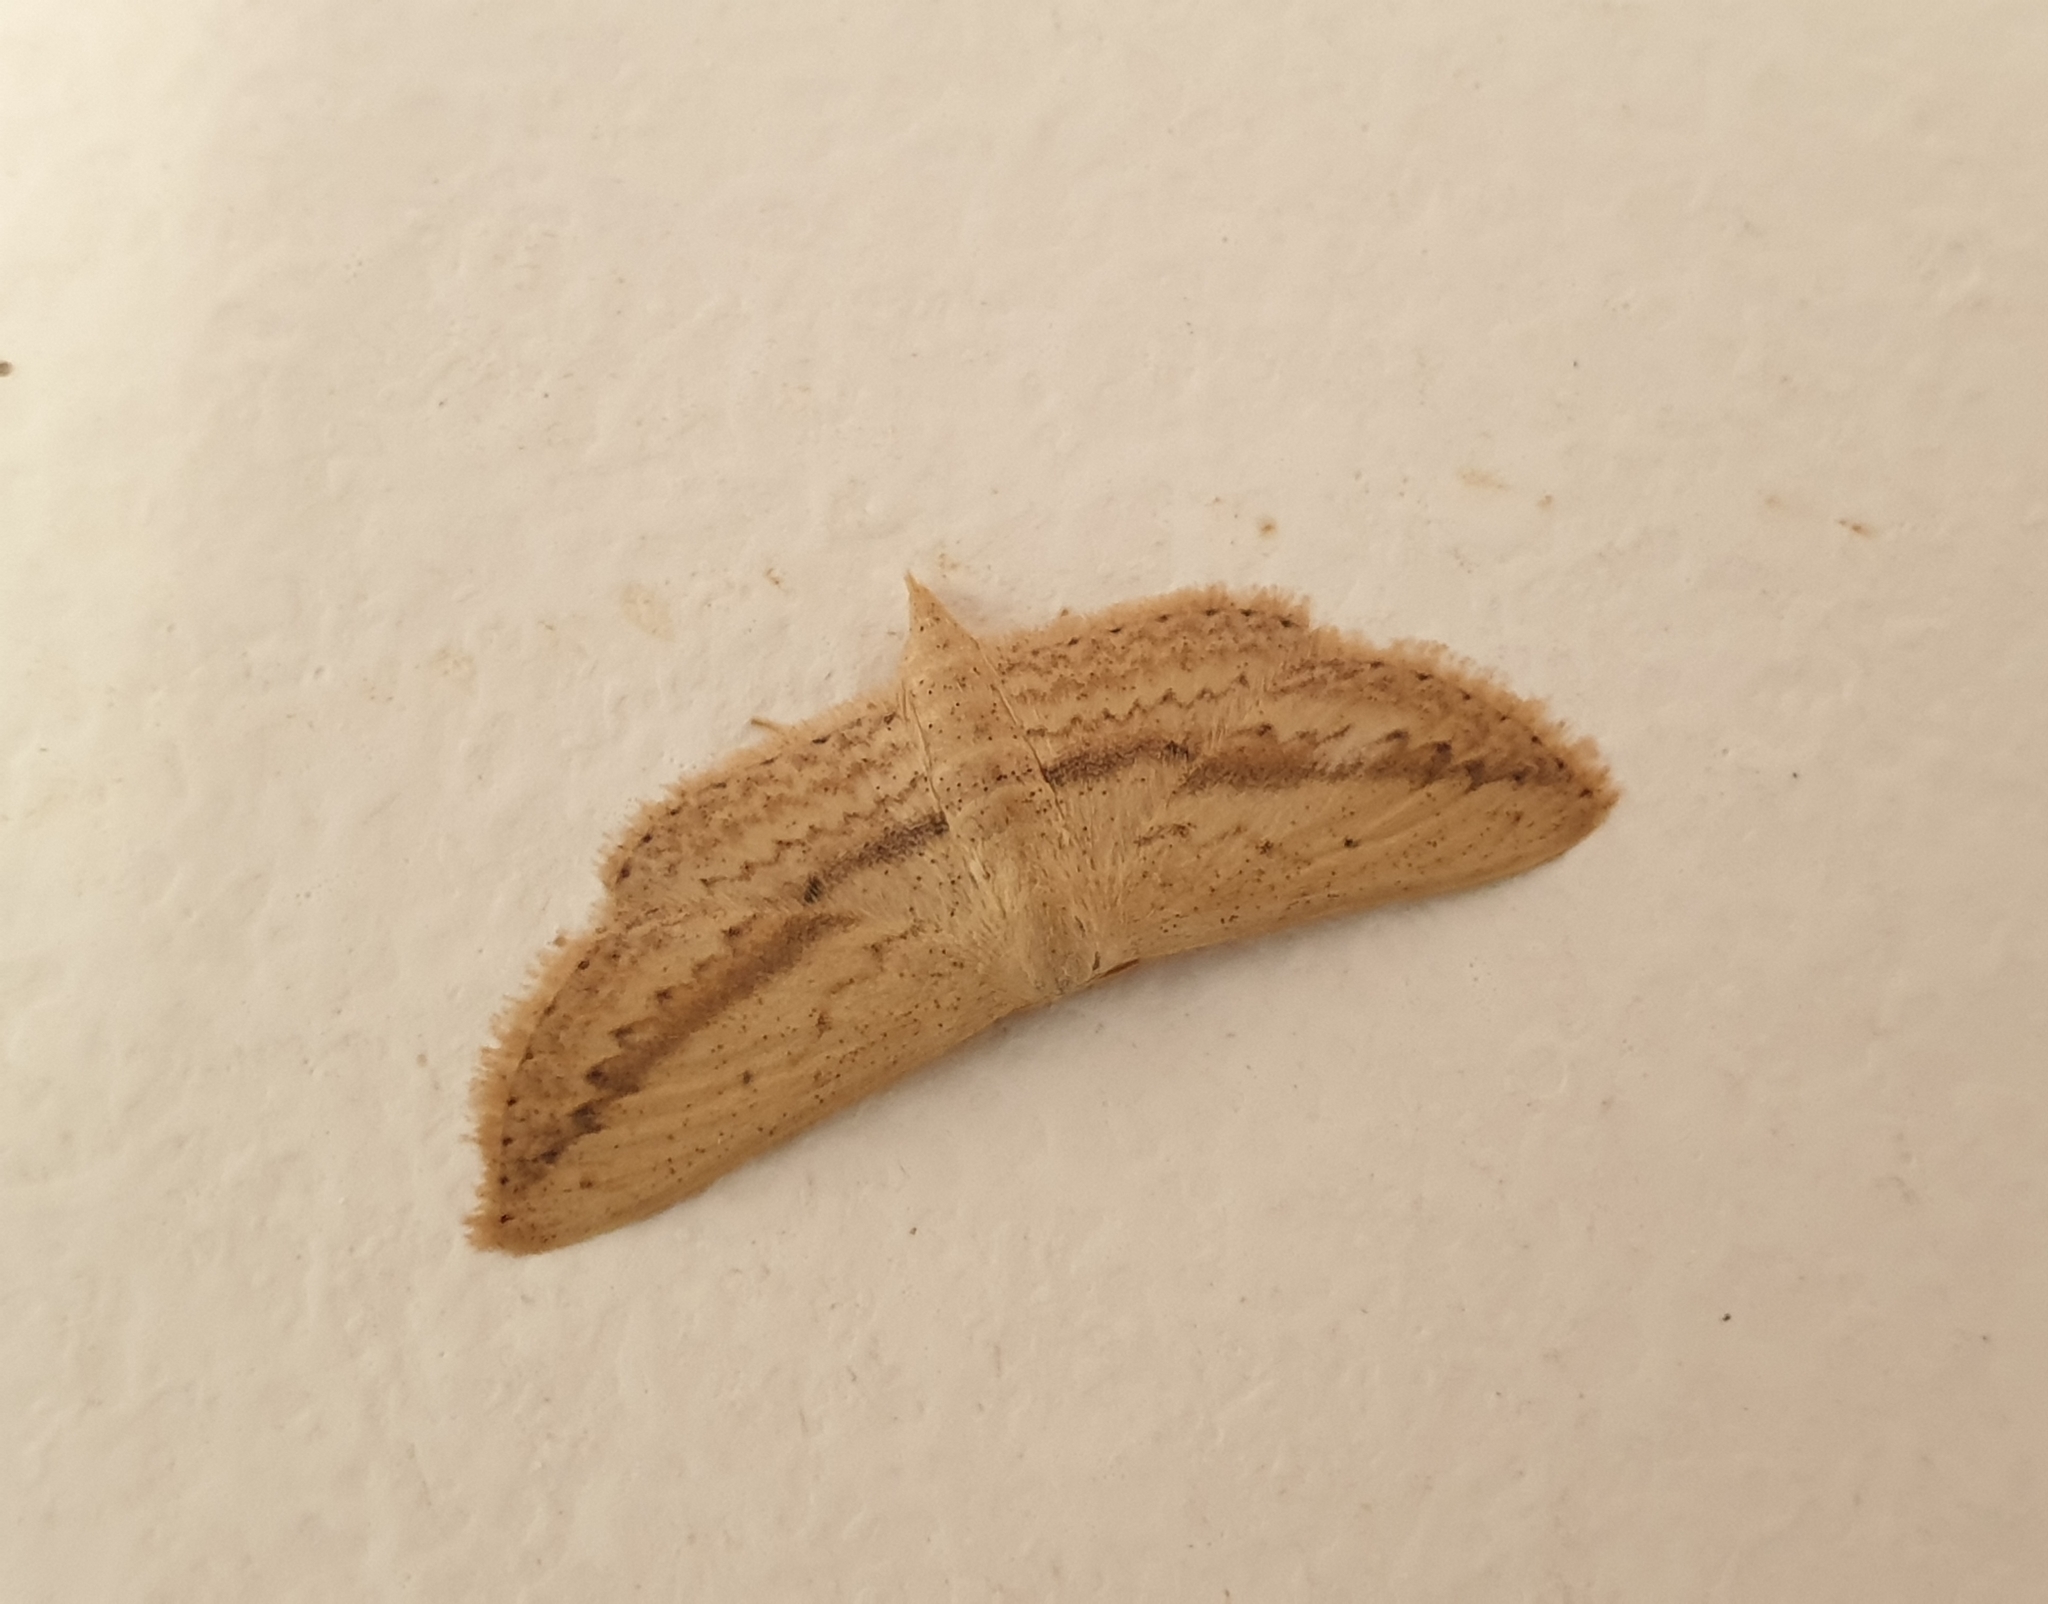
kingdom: Animalia
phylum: Arthropoda
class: Insecta
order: Lepidoptera
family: Geometridae
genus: Scopula
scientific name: Scopula emissaria
